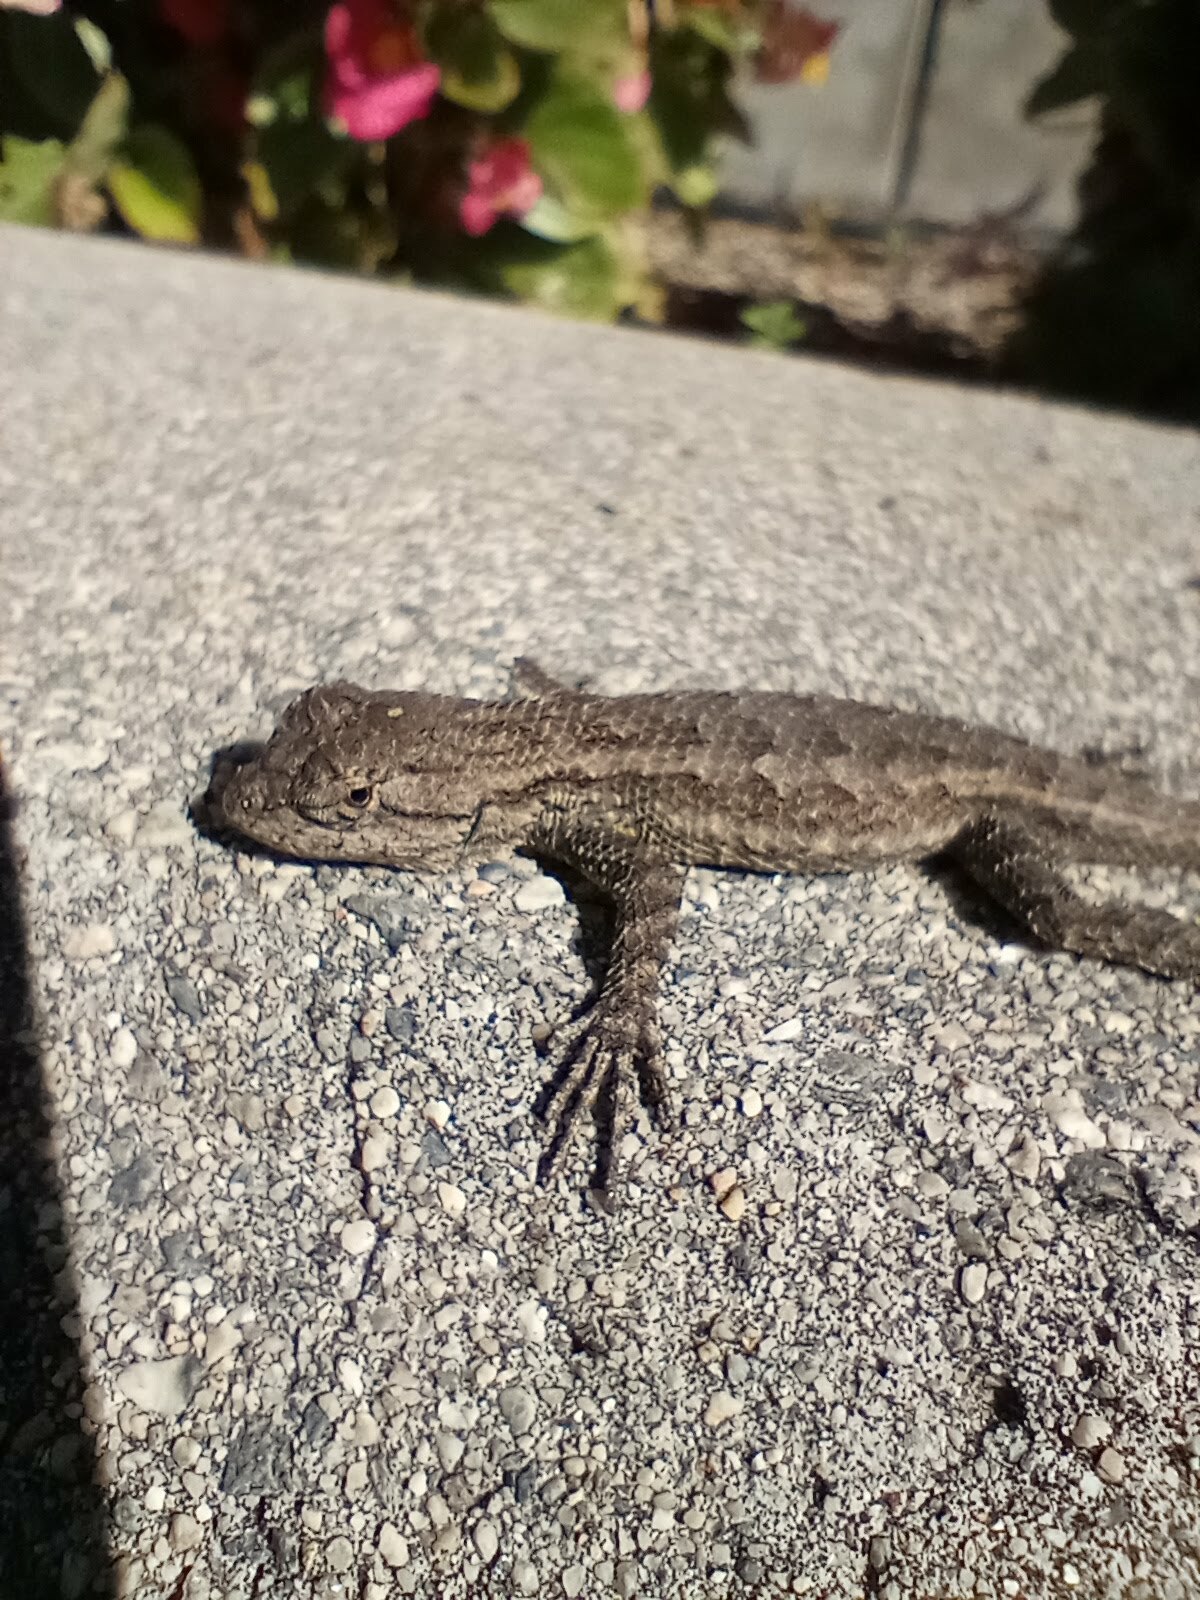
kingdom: Animalia
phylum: Chordata
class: Squamata
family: Phrynosomatidae
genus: Sceloporus
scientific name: Sceloporus occidentalis
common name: Western fence lizard
